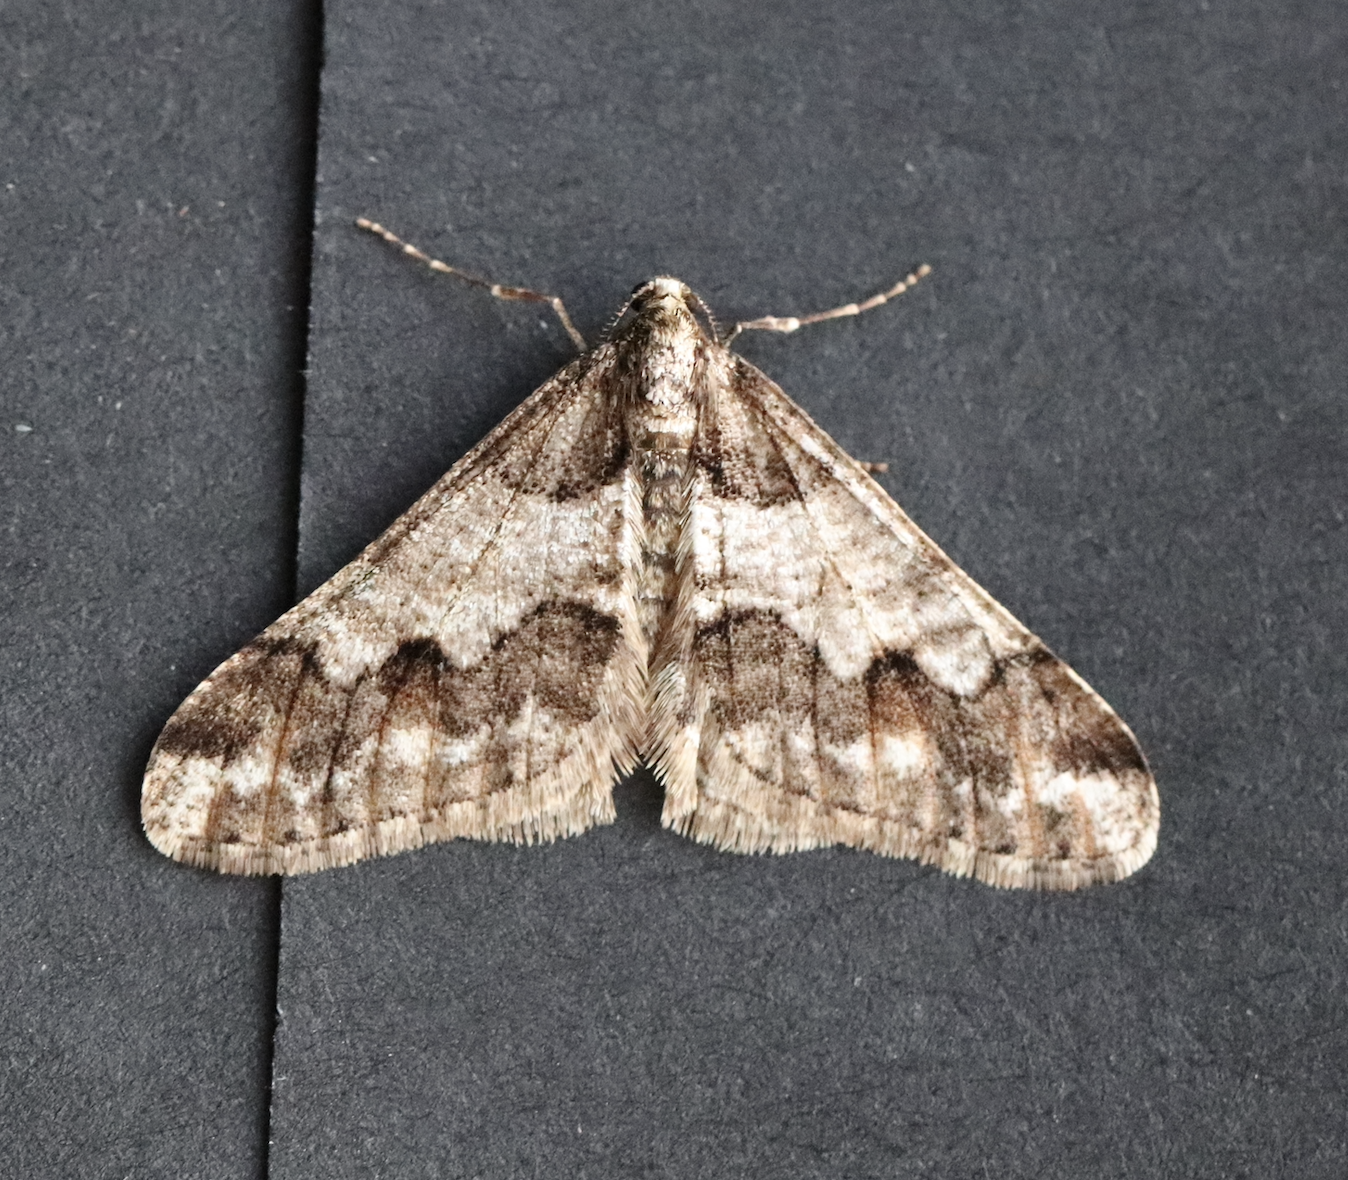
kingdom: Animalia
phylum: Arthropoda
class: Insecta
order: Lepidoptera
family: Geometridae
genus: Agriopis
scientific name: Agriopis leucophaearia
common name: Spring usher
